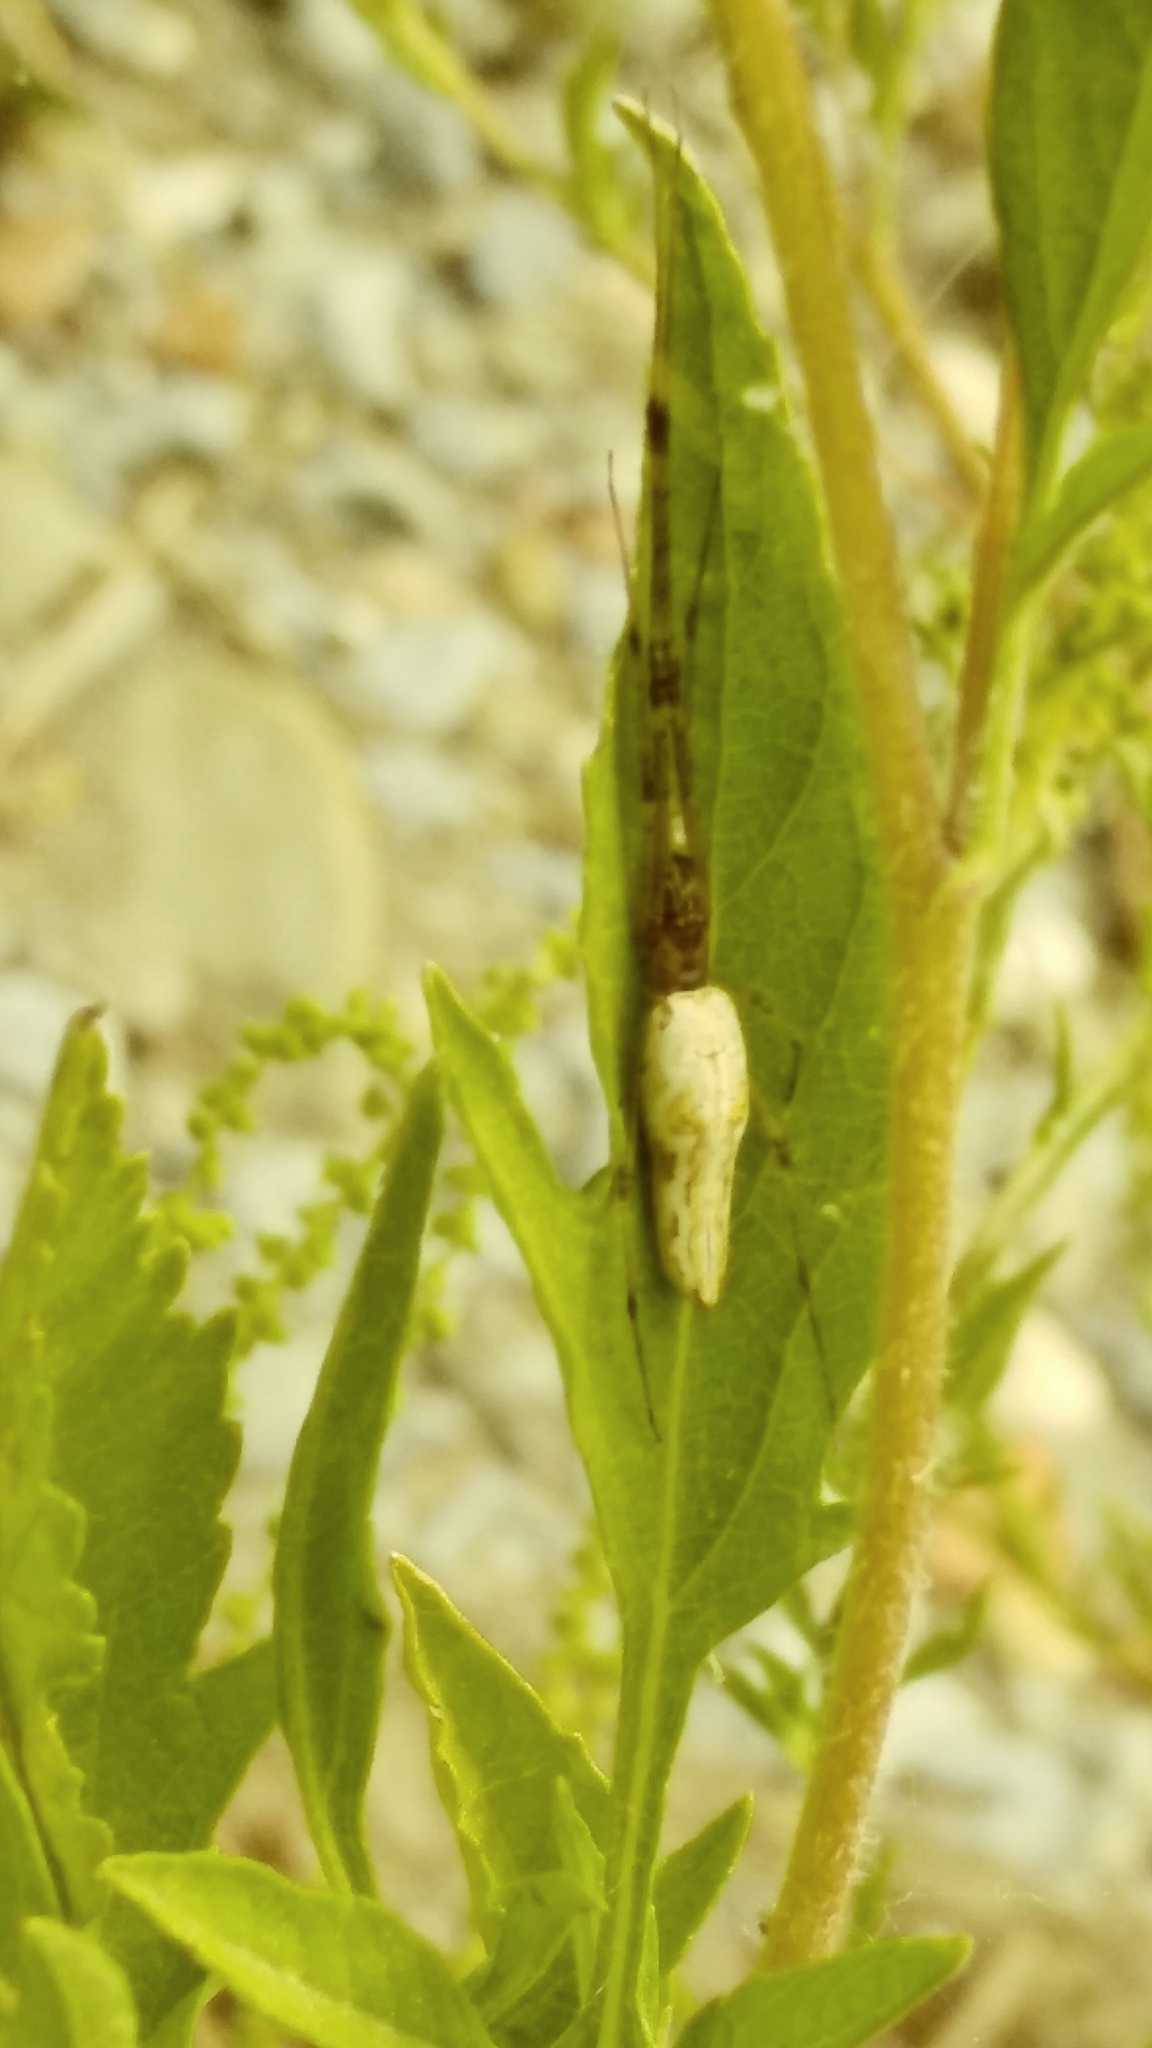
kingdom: Animalia
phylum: Arthropoda
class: Arachnida
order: Araneae
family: Tetragnathidae
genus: Tetragnatha
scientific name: Tetragnatha elongata
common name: Longjawed orb weavers
